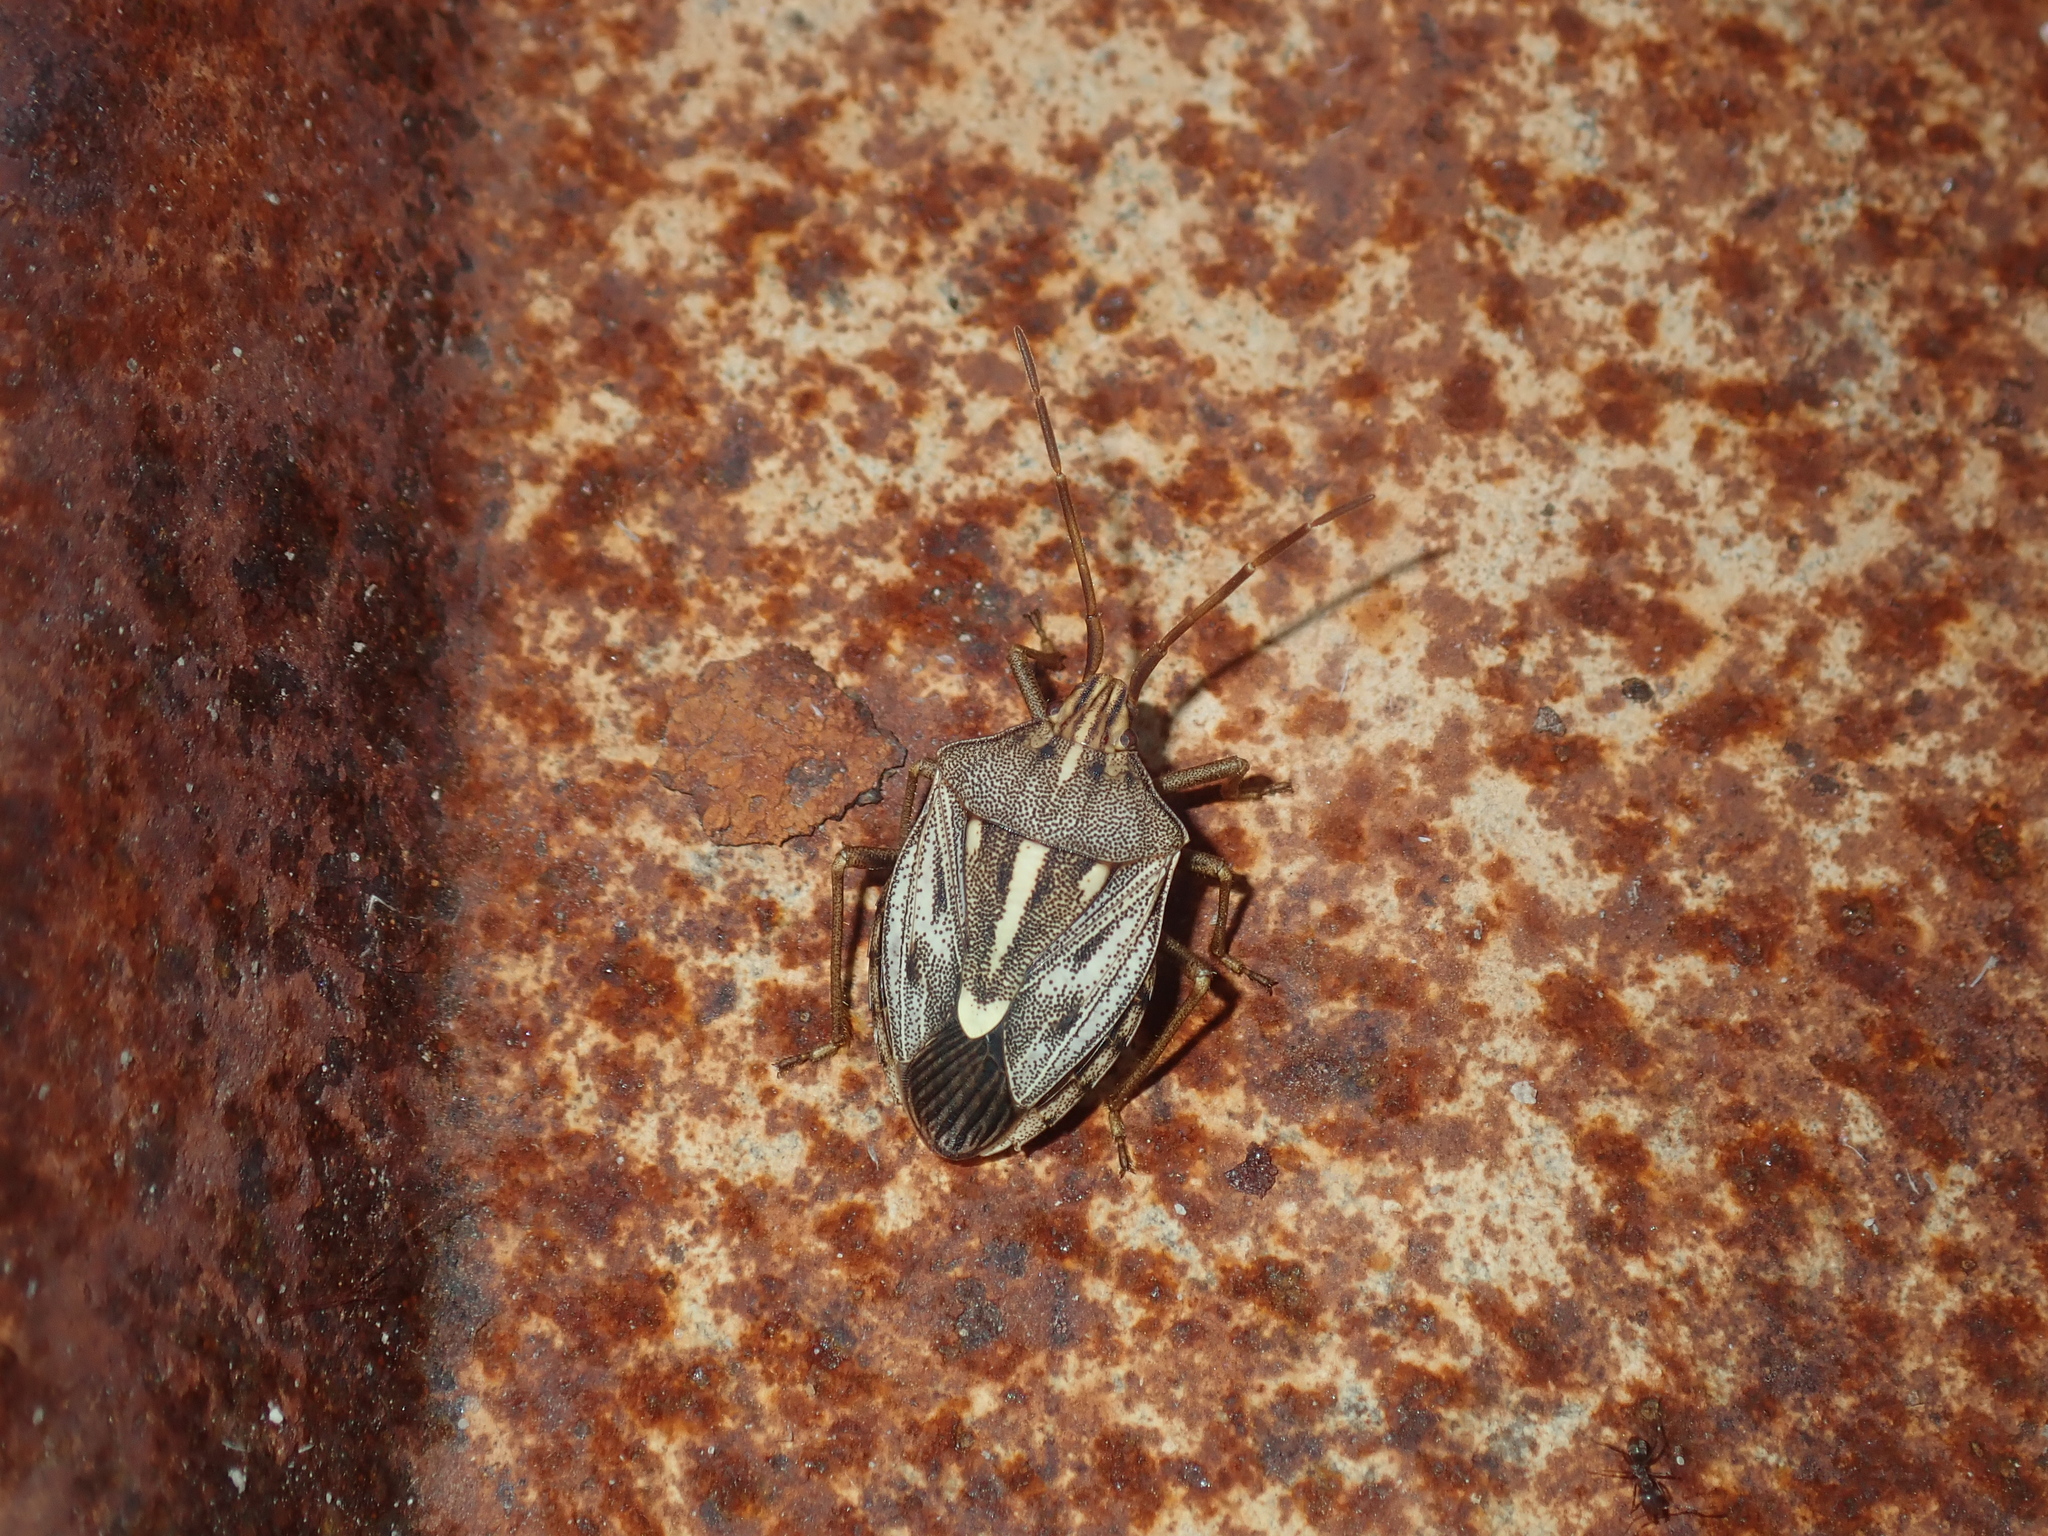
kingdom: Animalia
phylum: Arthropoda
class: Insecta
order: Hemiptera
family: Pentatomidae
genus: Dippilana
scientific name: Dippilana
